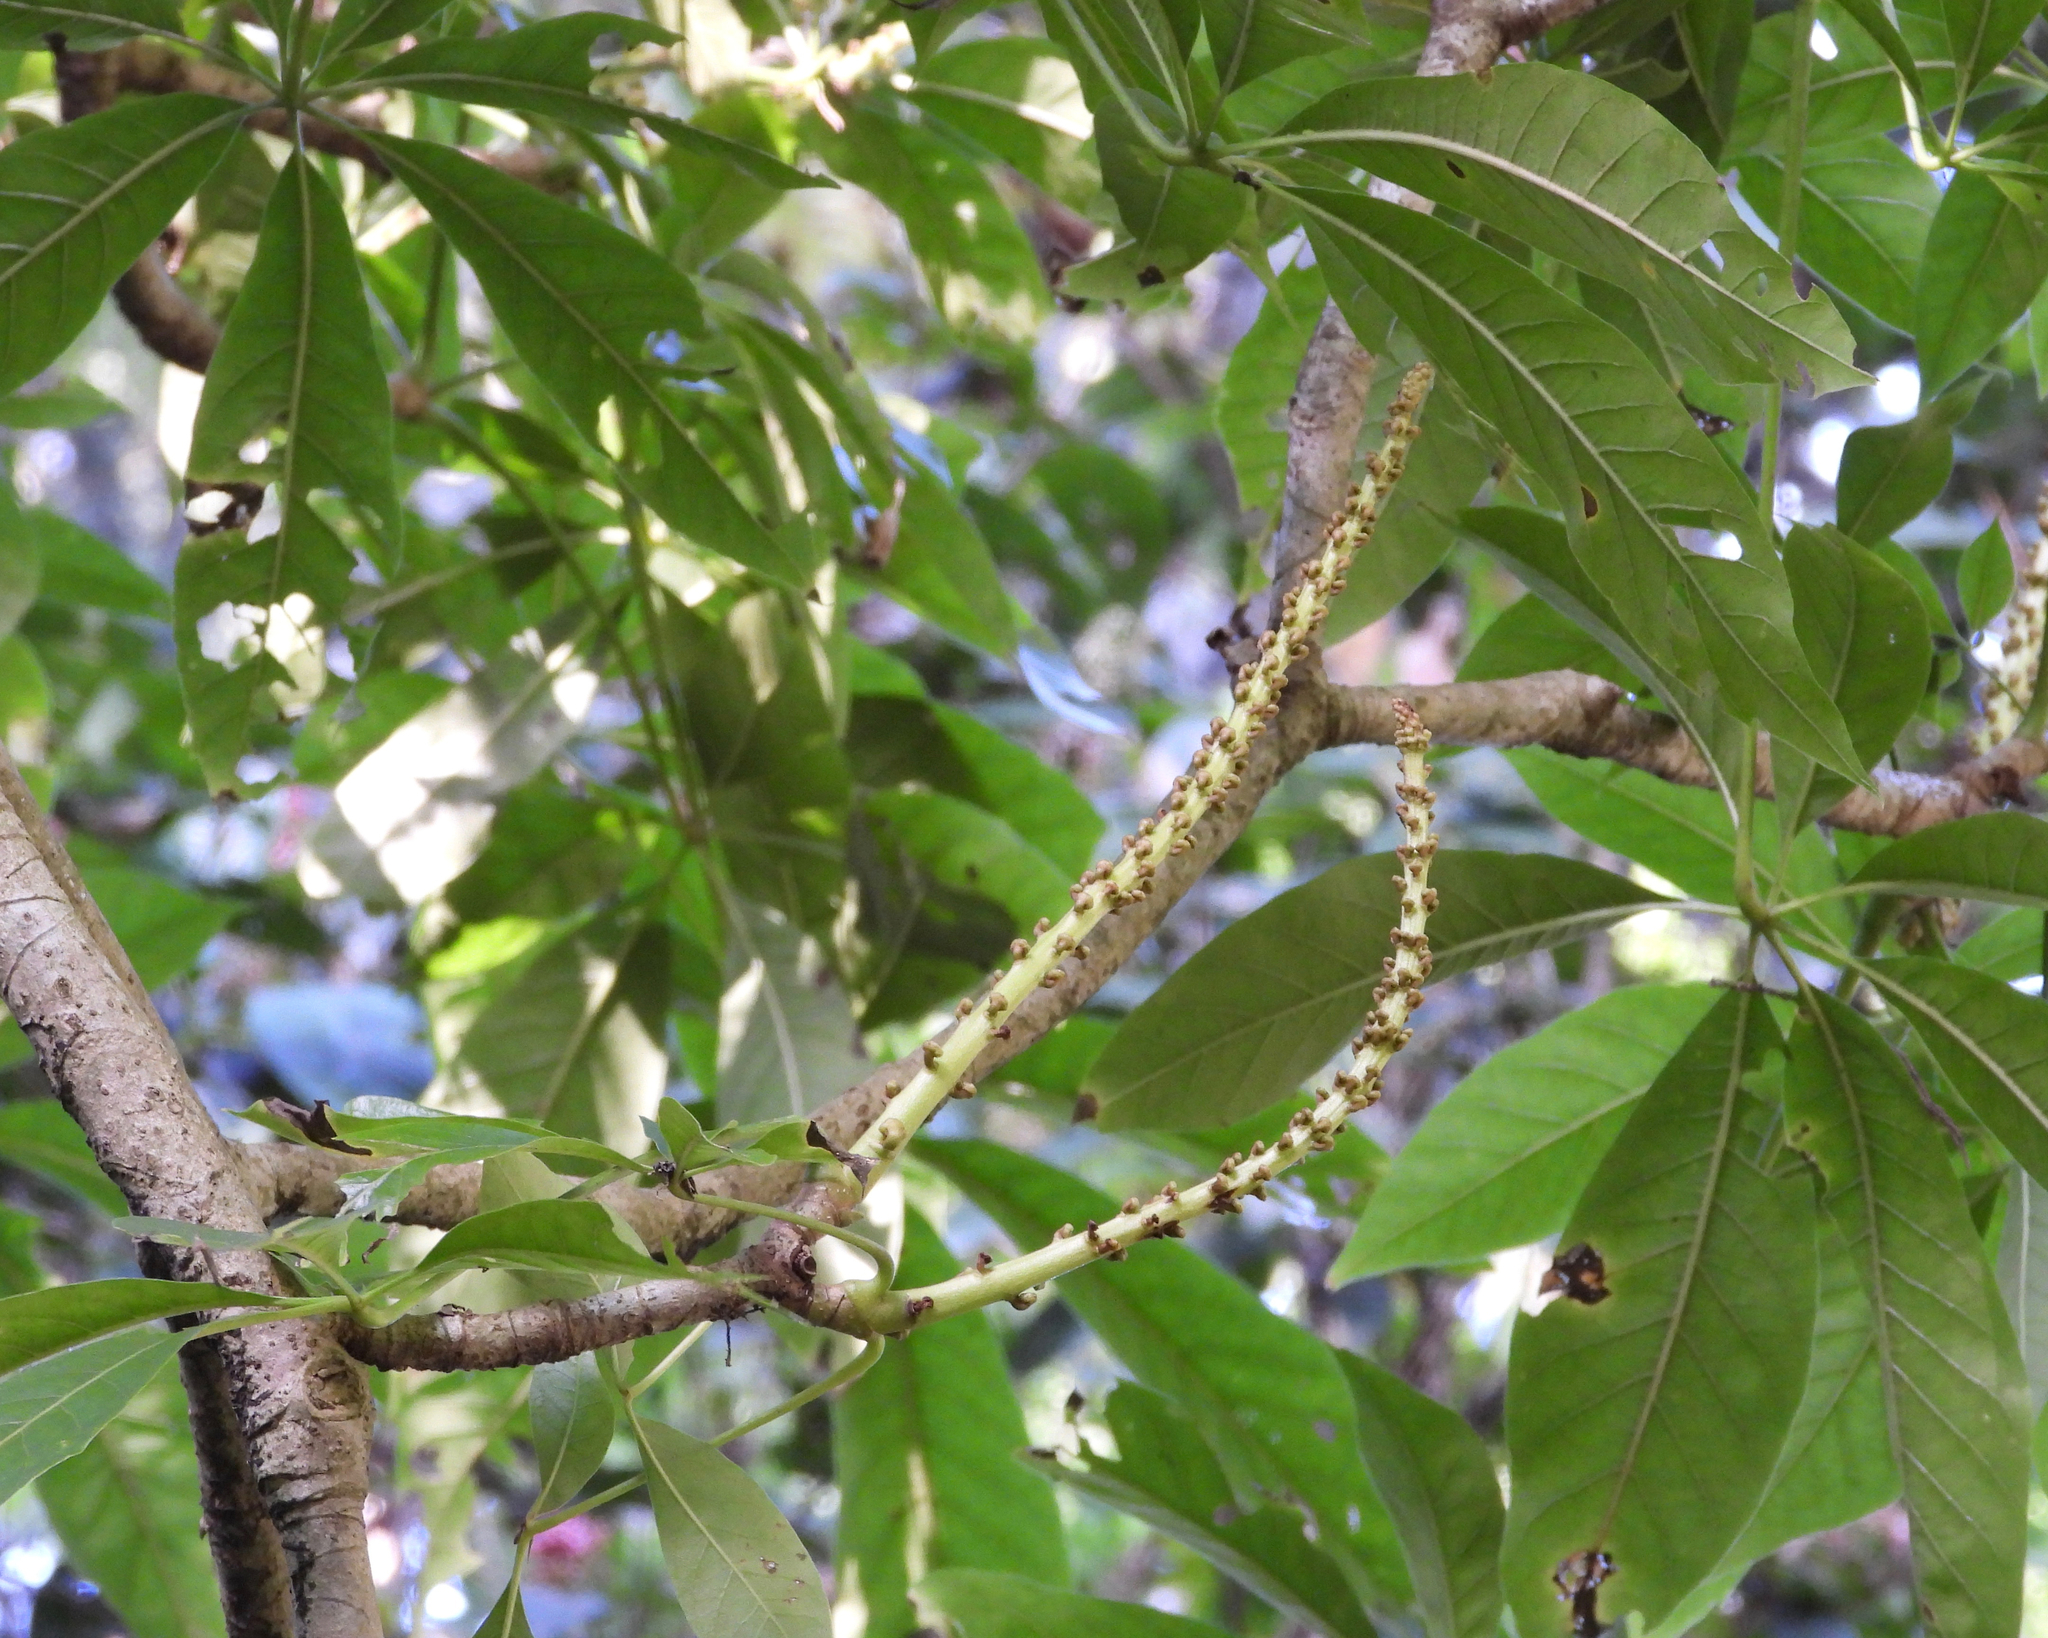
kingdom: Plantae
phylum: Tracheophyta
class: Magnoliopsida
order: Apiales
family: Araliaceae
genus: Oreopanax
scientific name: Oreopanax xalapensis
